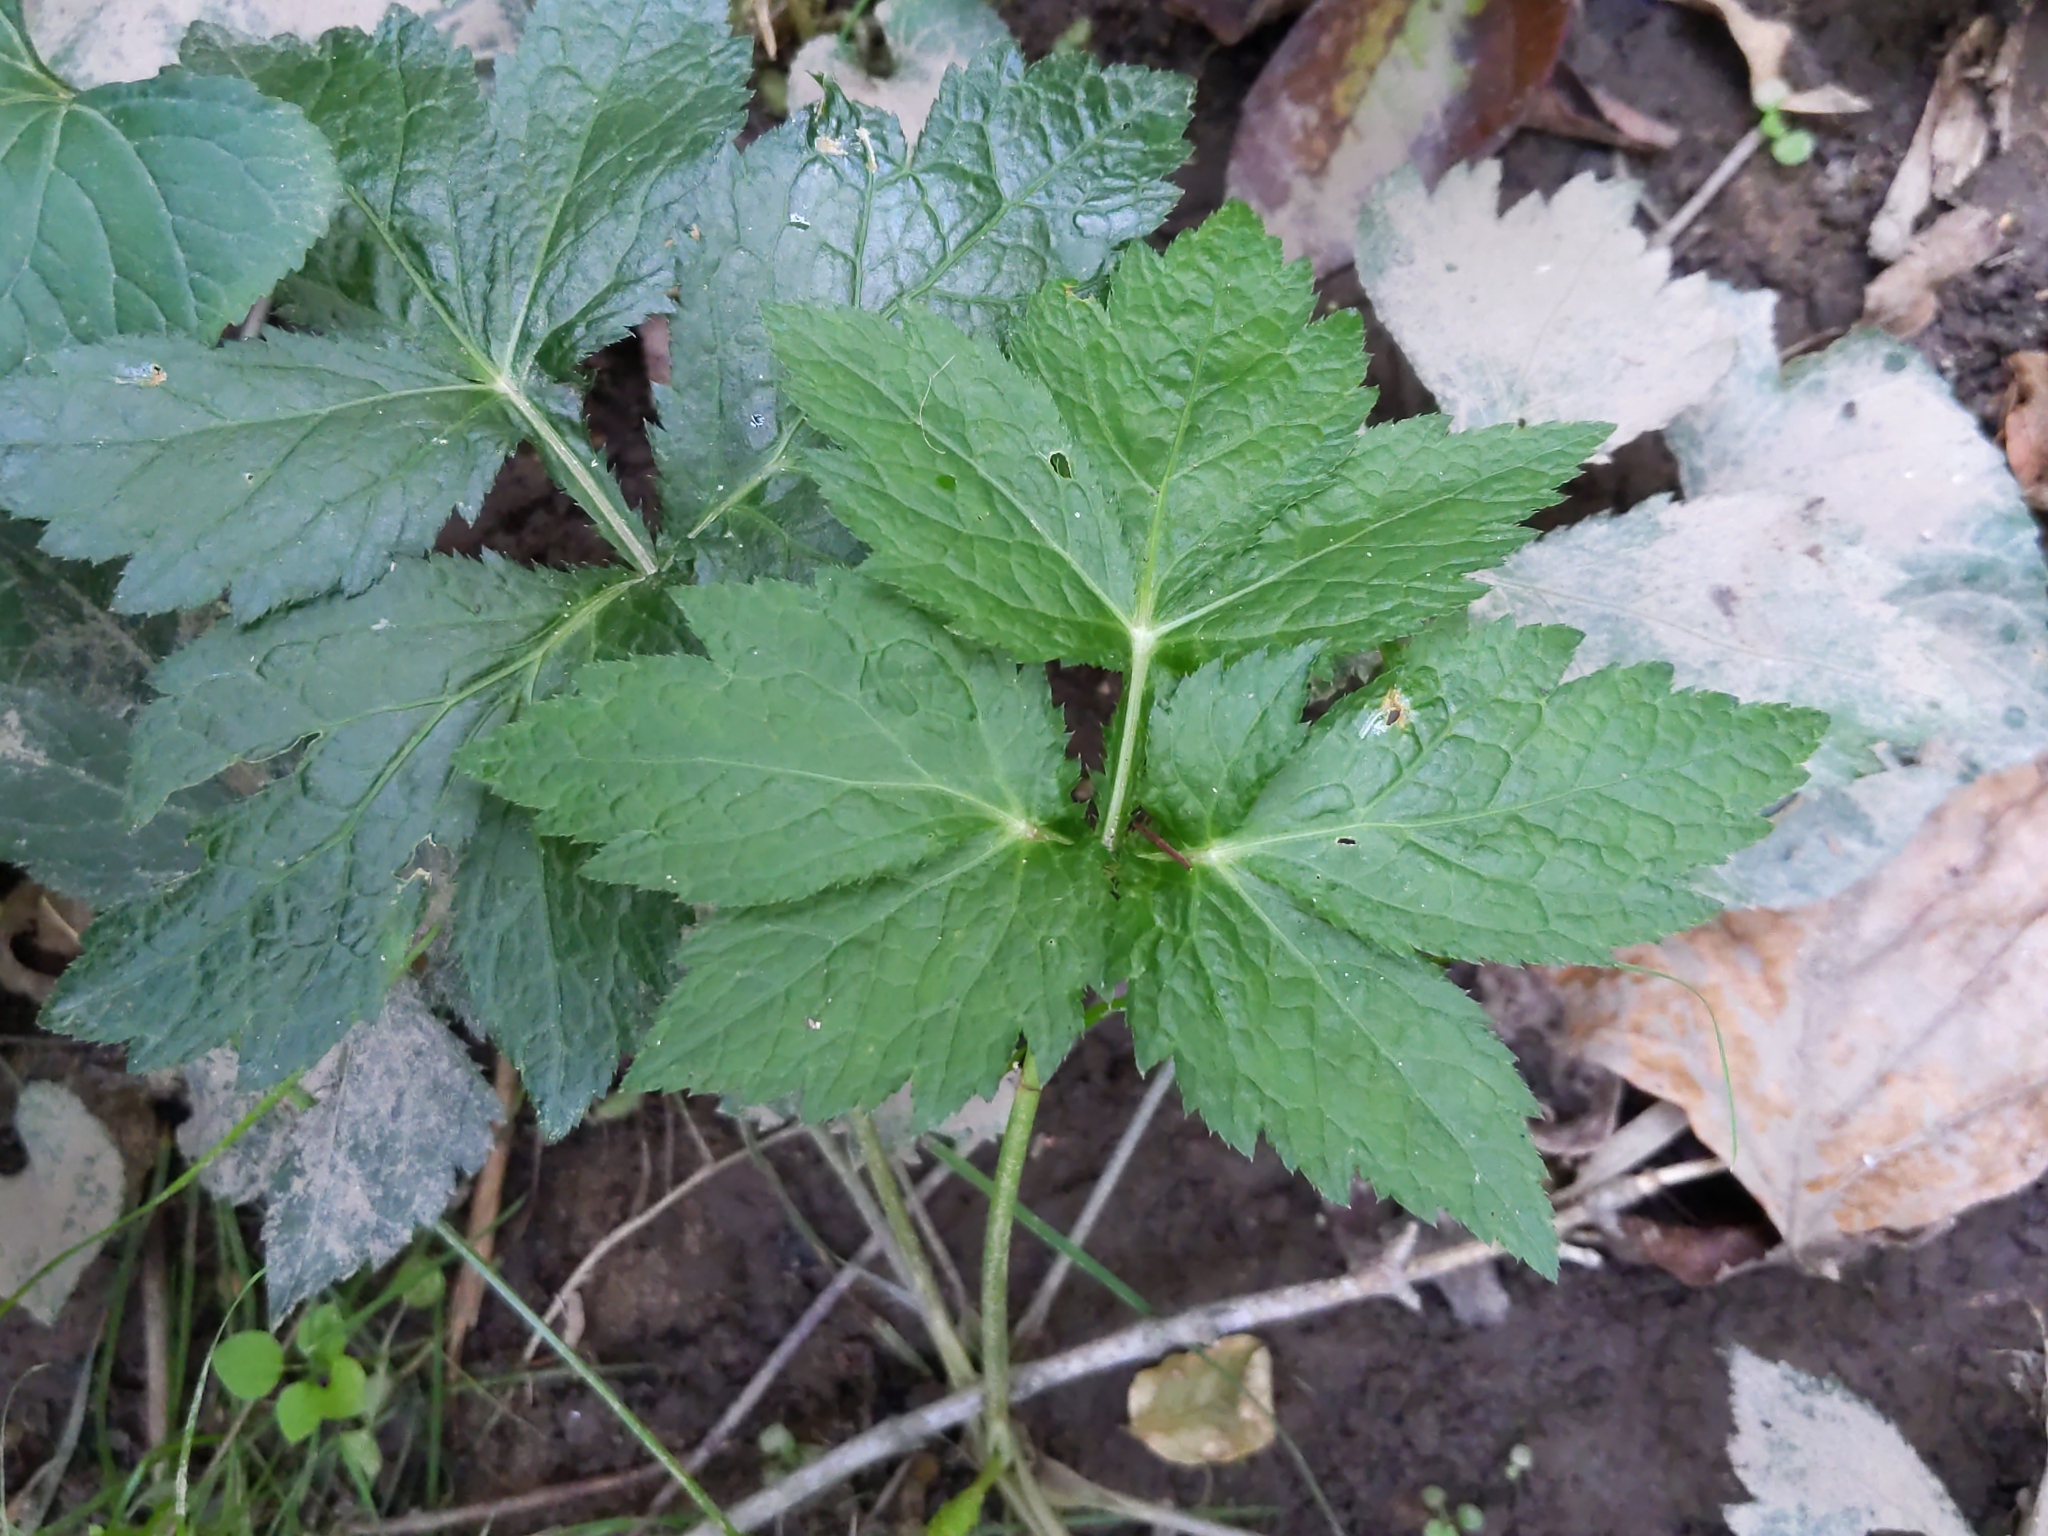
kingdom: Plantae
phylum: Tracheophyta
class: Magnoliopsida
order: Apiales
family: Apiaceae
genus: Cryptotaenia
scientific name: Cryptotaenia canadensis
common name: Honewort
